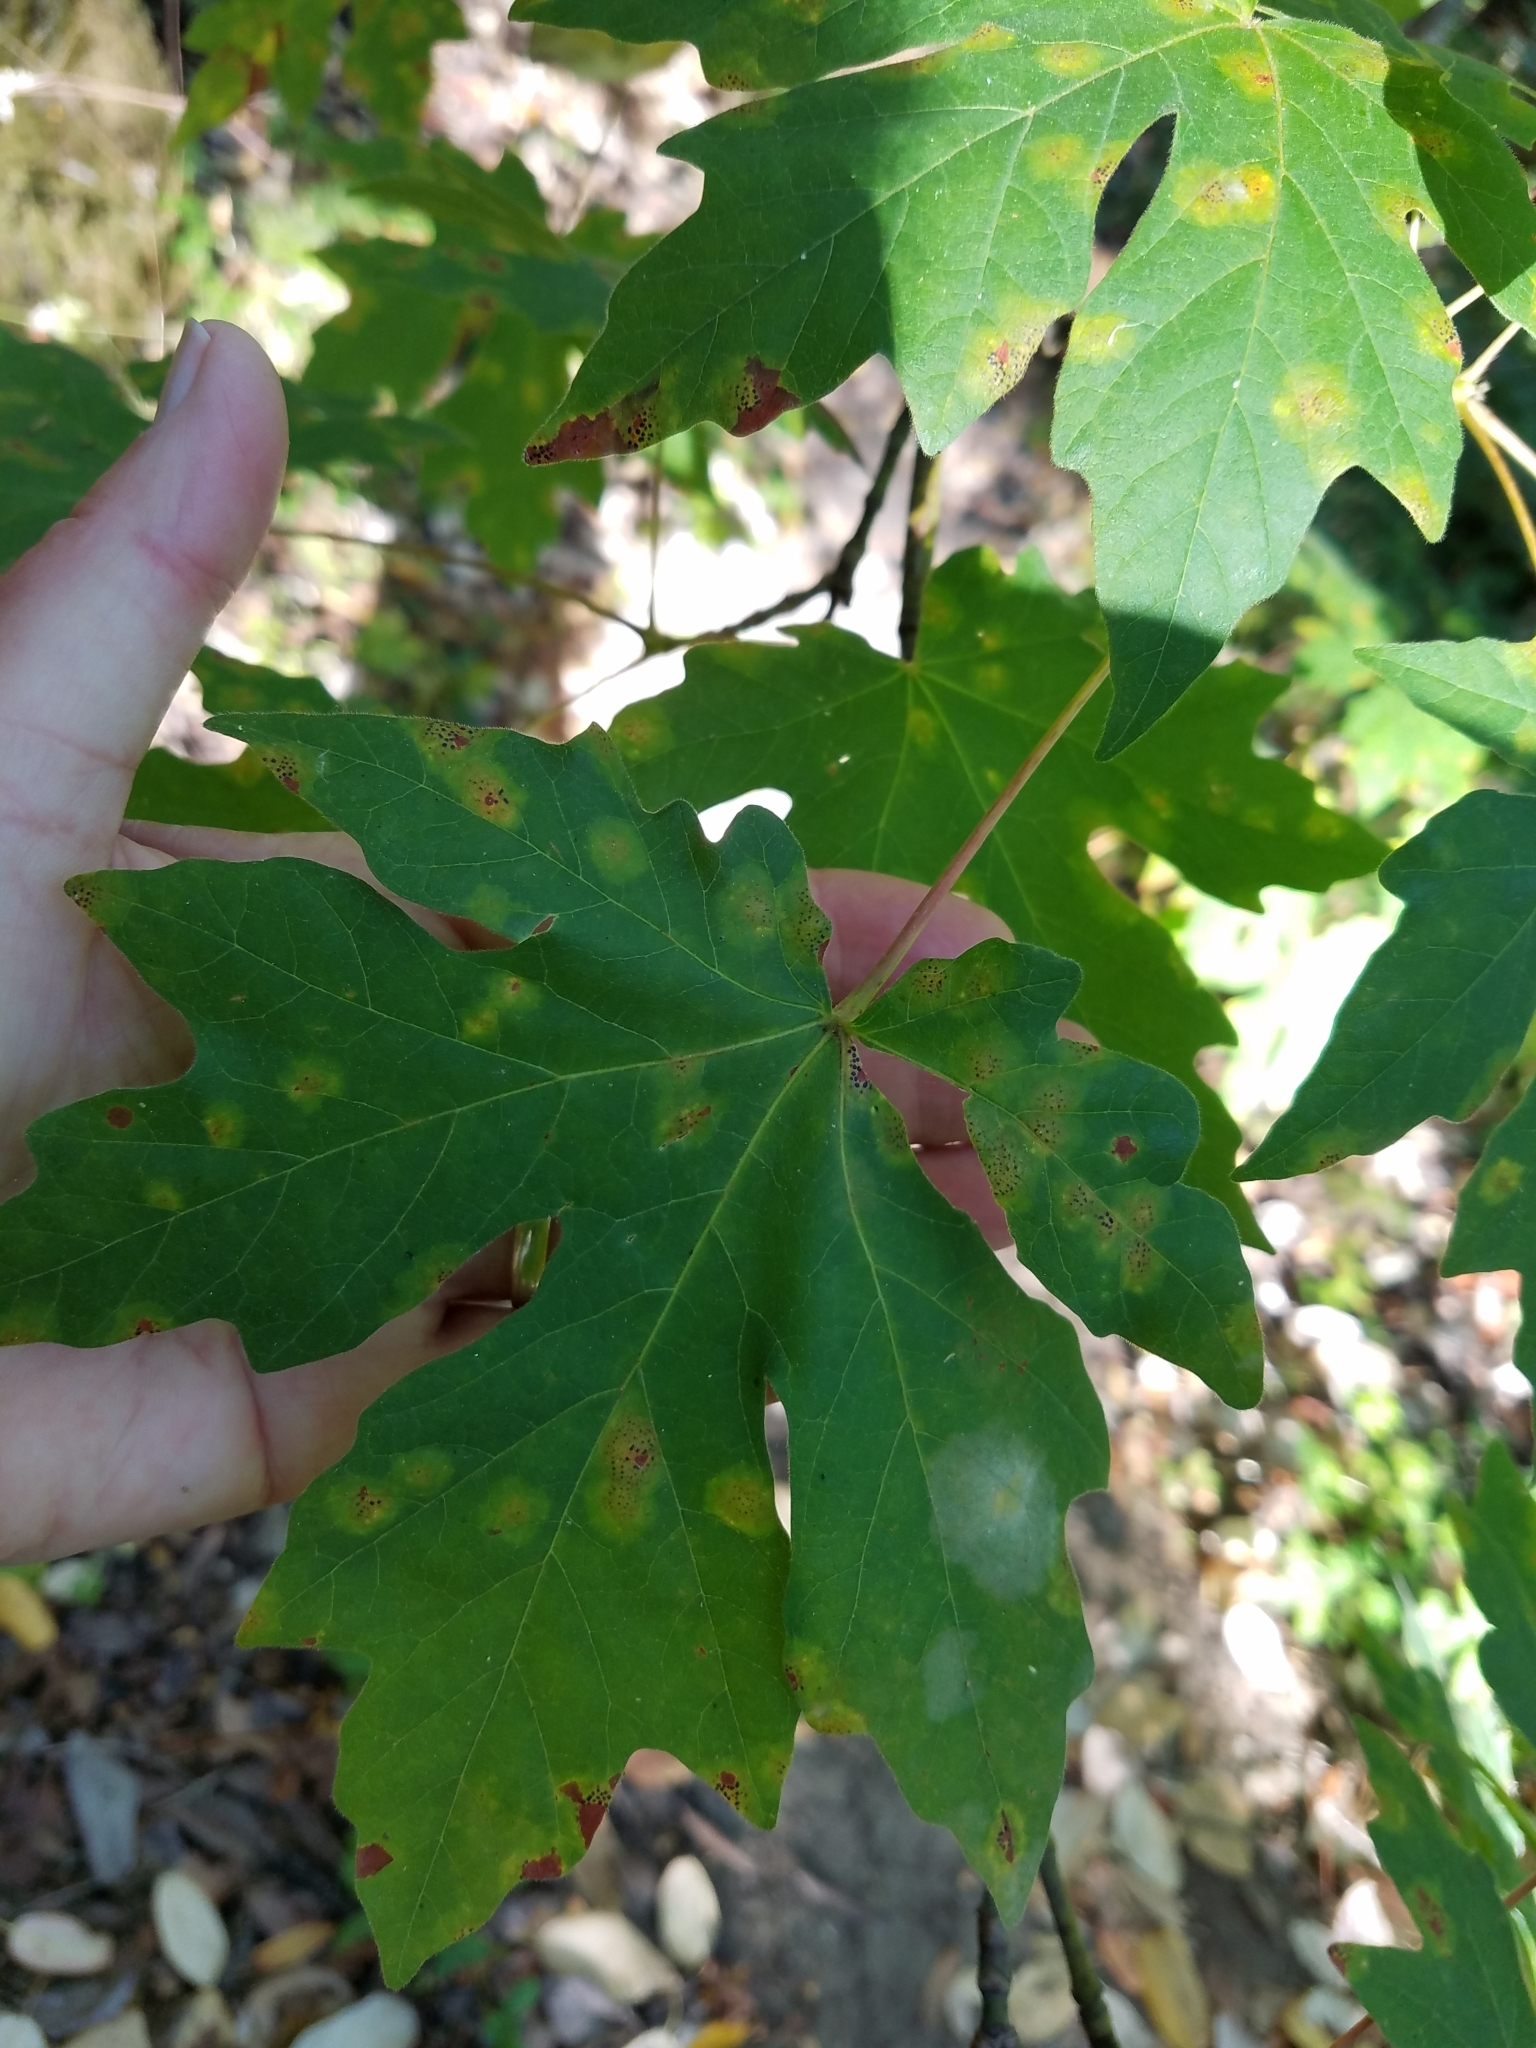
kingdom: Plantae
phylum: Tracheophyta
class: Magnoliopsida
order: Sapindales
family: Sapindaceae
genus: Acer
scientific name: Acer macrophyllum
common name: Oregon maple
